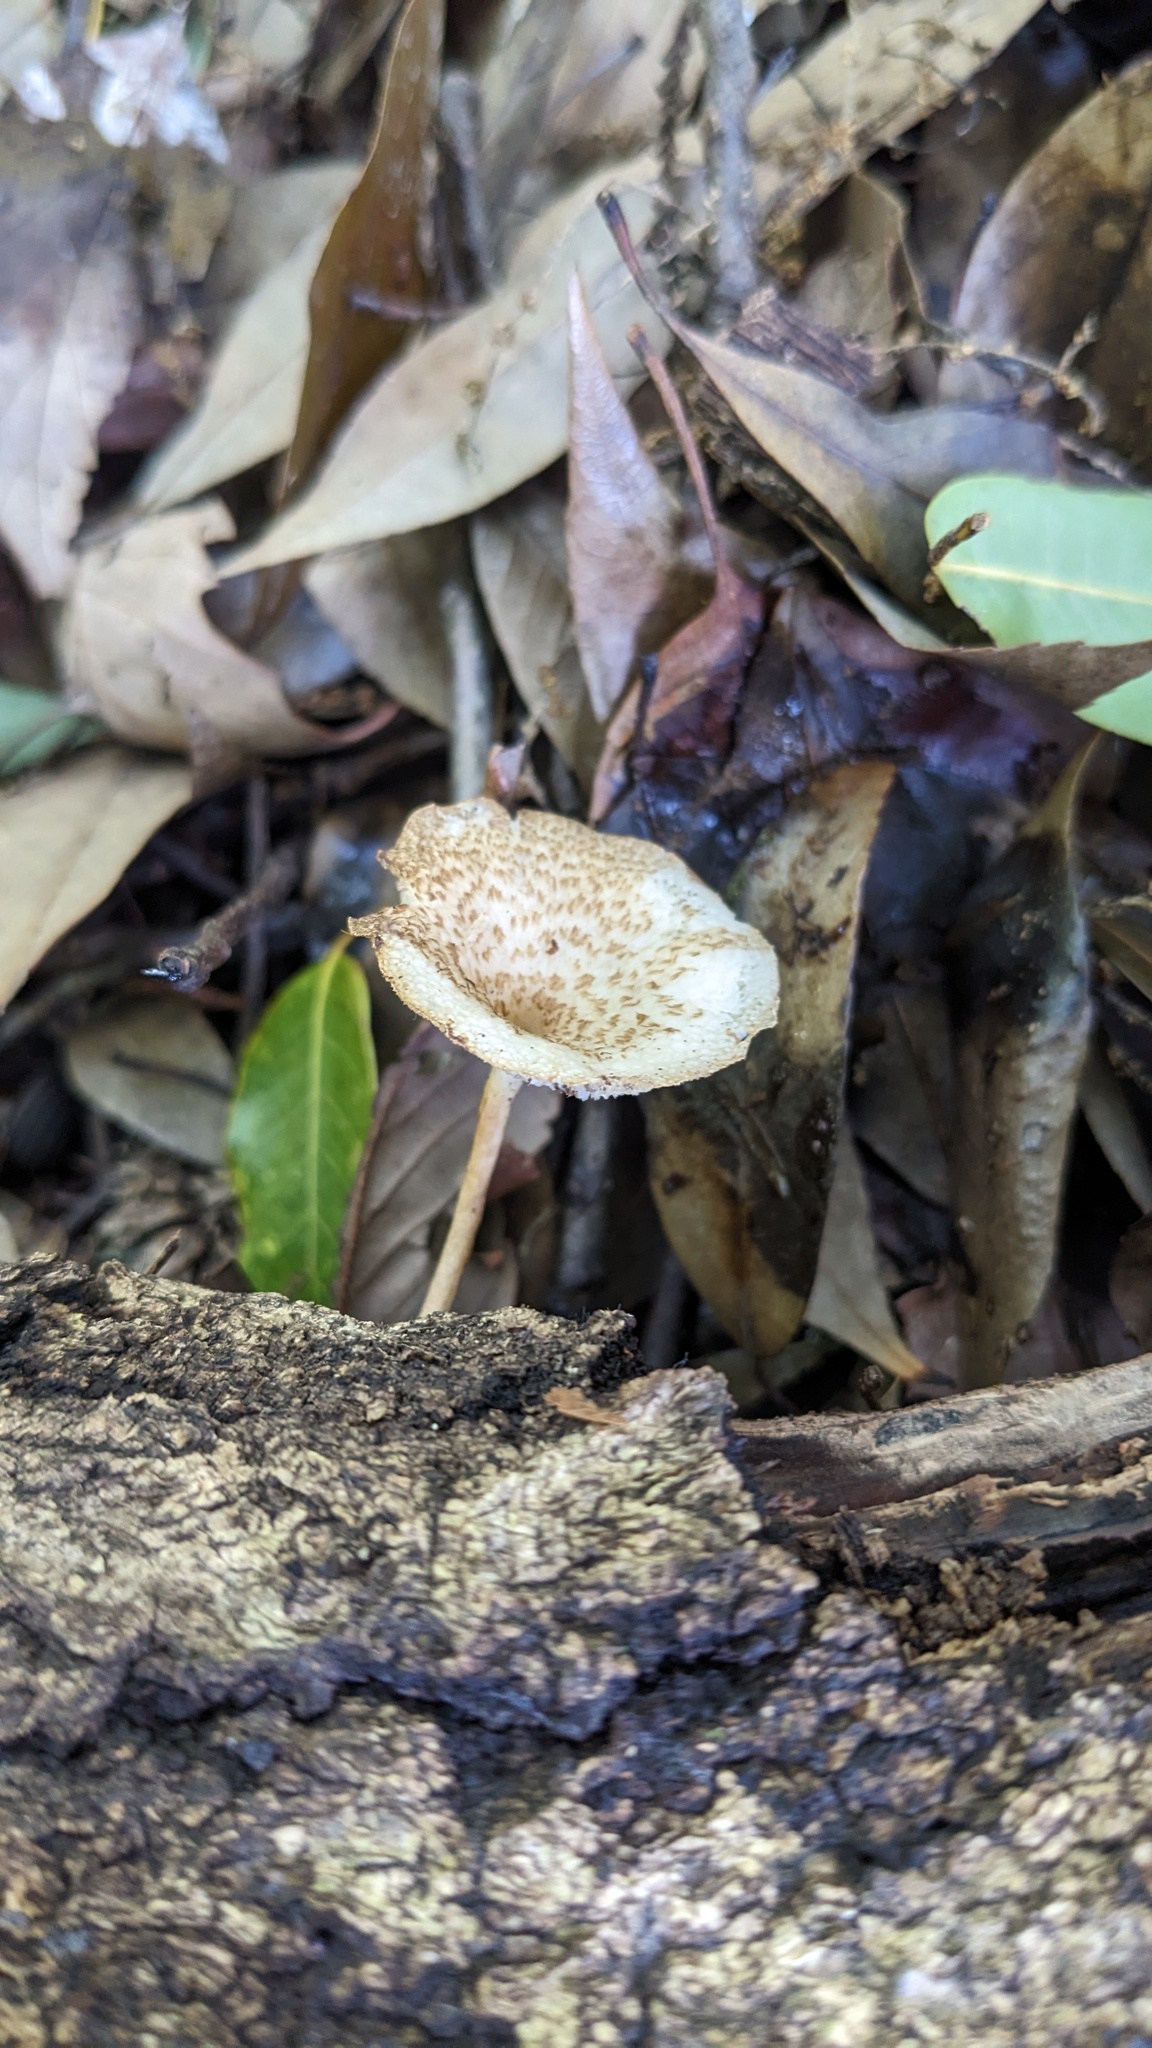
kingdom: Fungi
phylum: Basidiomycota
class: Agaricomycetes
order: Polyporales
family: Polyporaceae
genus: Lentinus
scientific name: Lentinus arcularius
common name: Spring polypore
